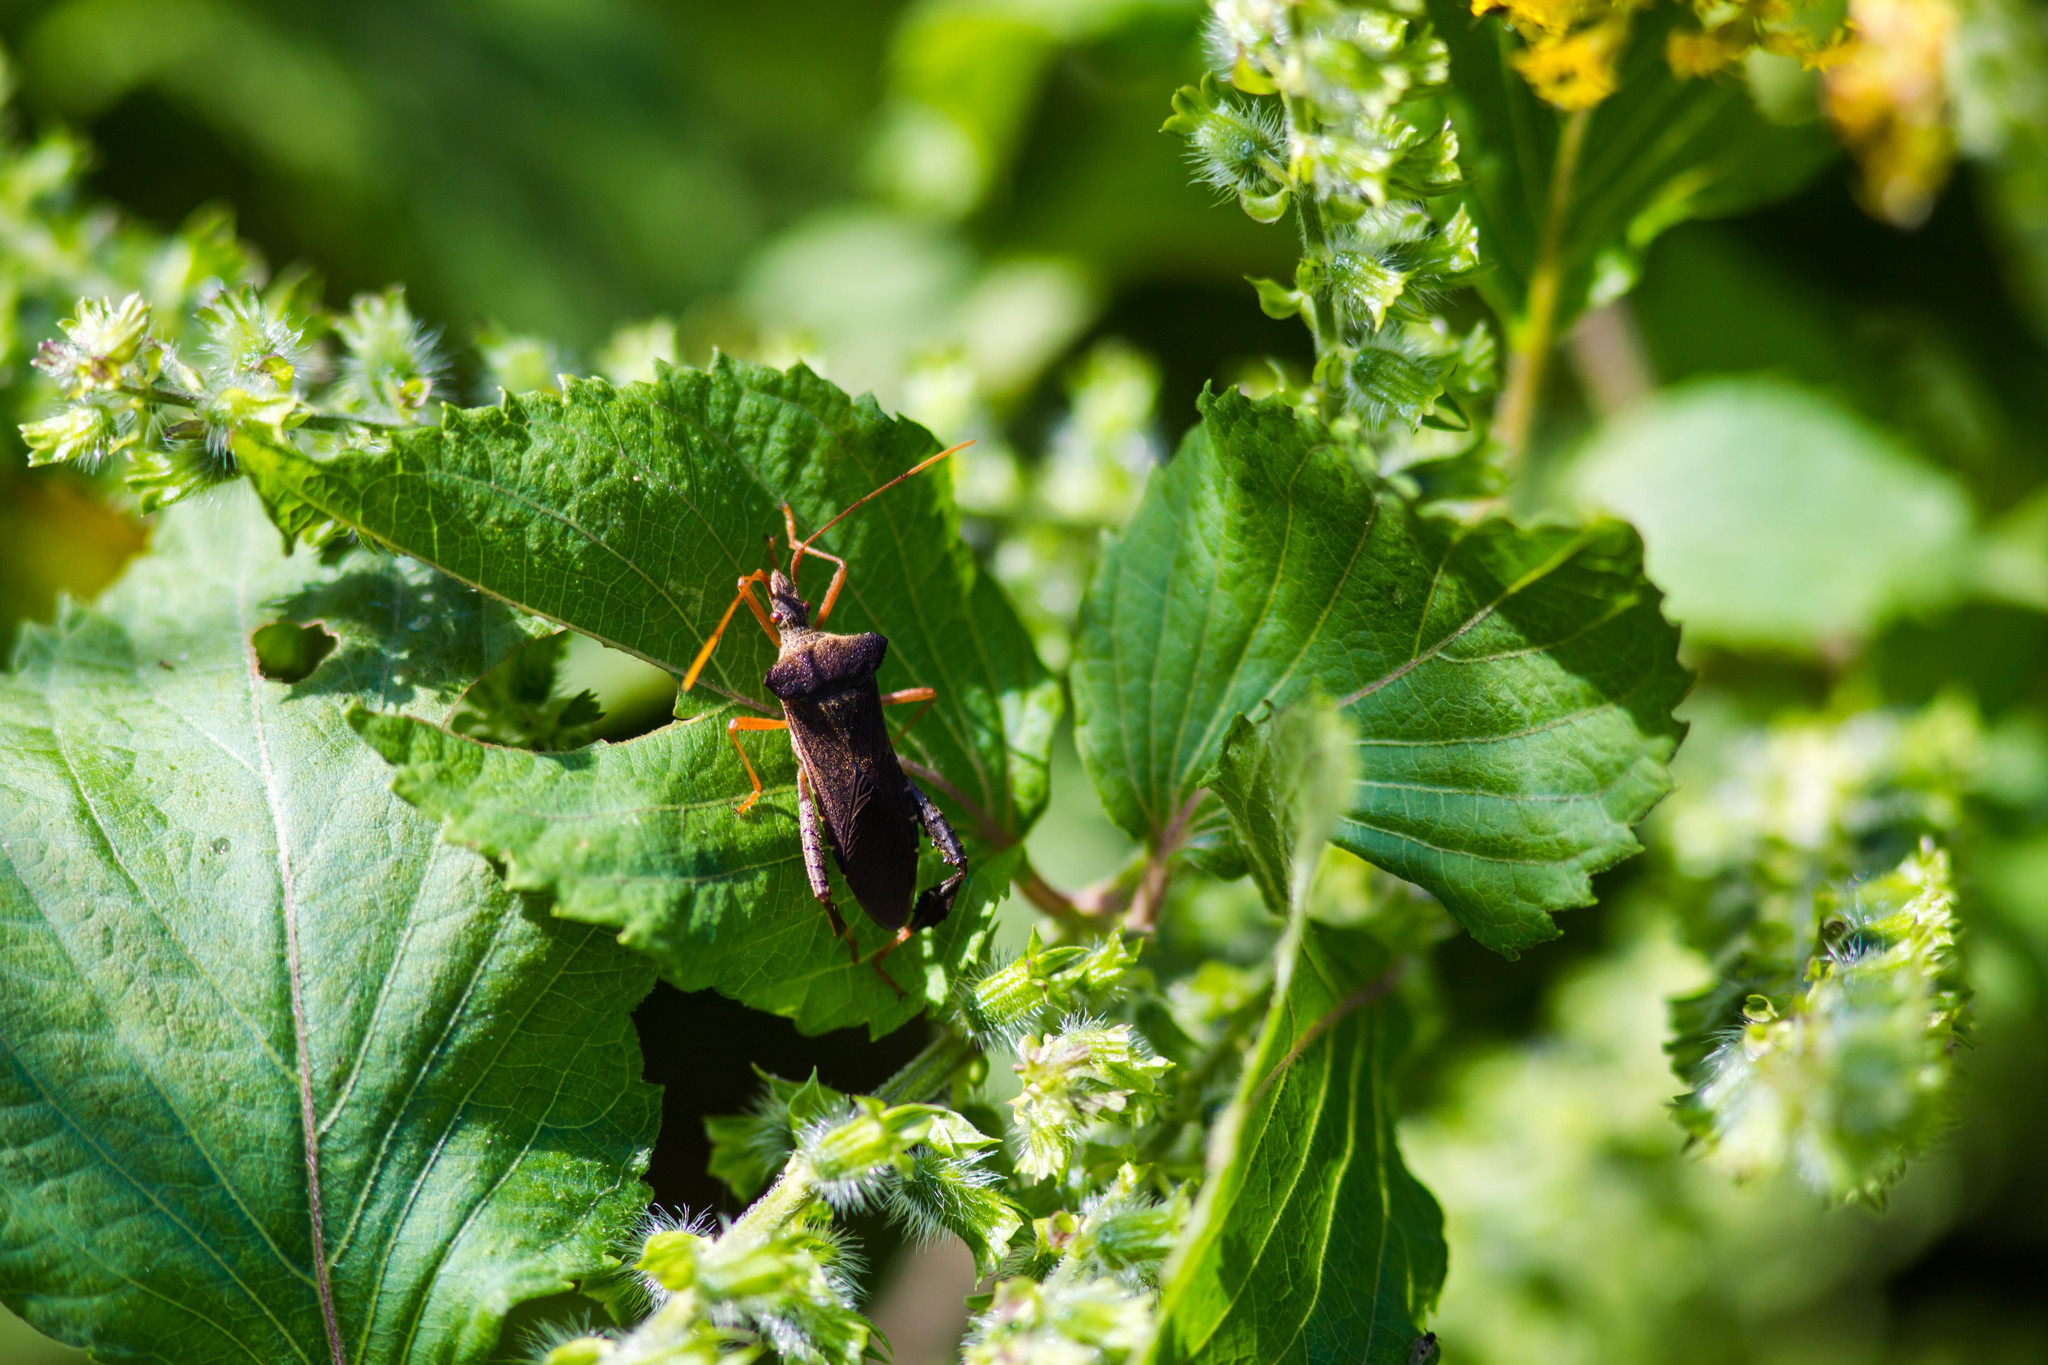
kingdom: Animalia
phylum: Arthropoda
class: Insecta
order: Hemiptera
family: Coreidae
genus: Leptoglossus
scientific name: Leptoglossus fulvicornis
